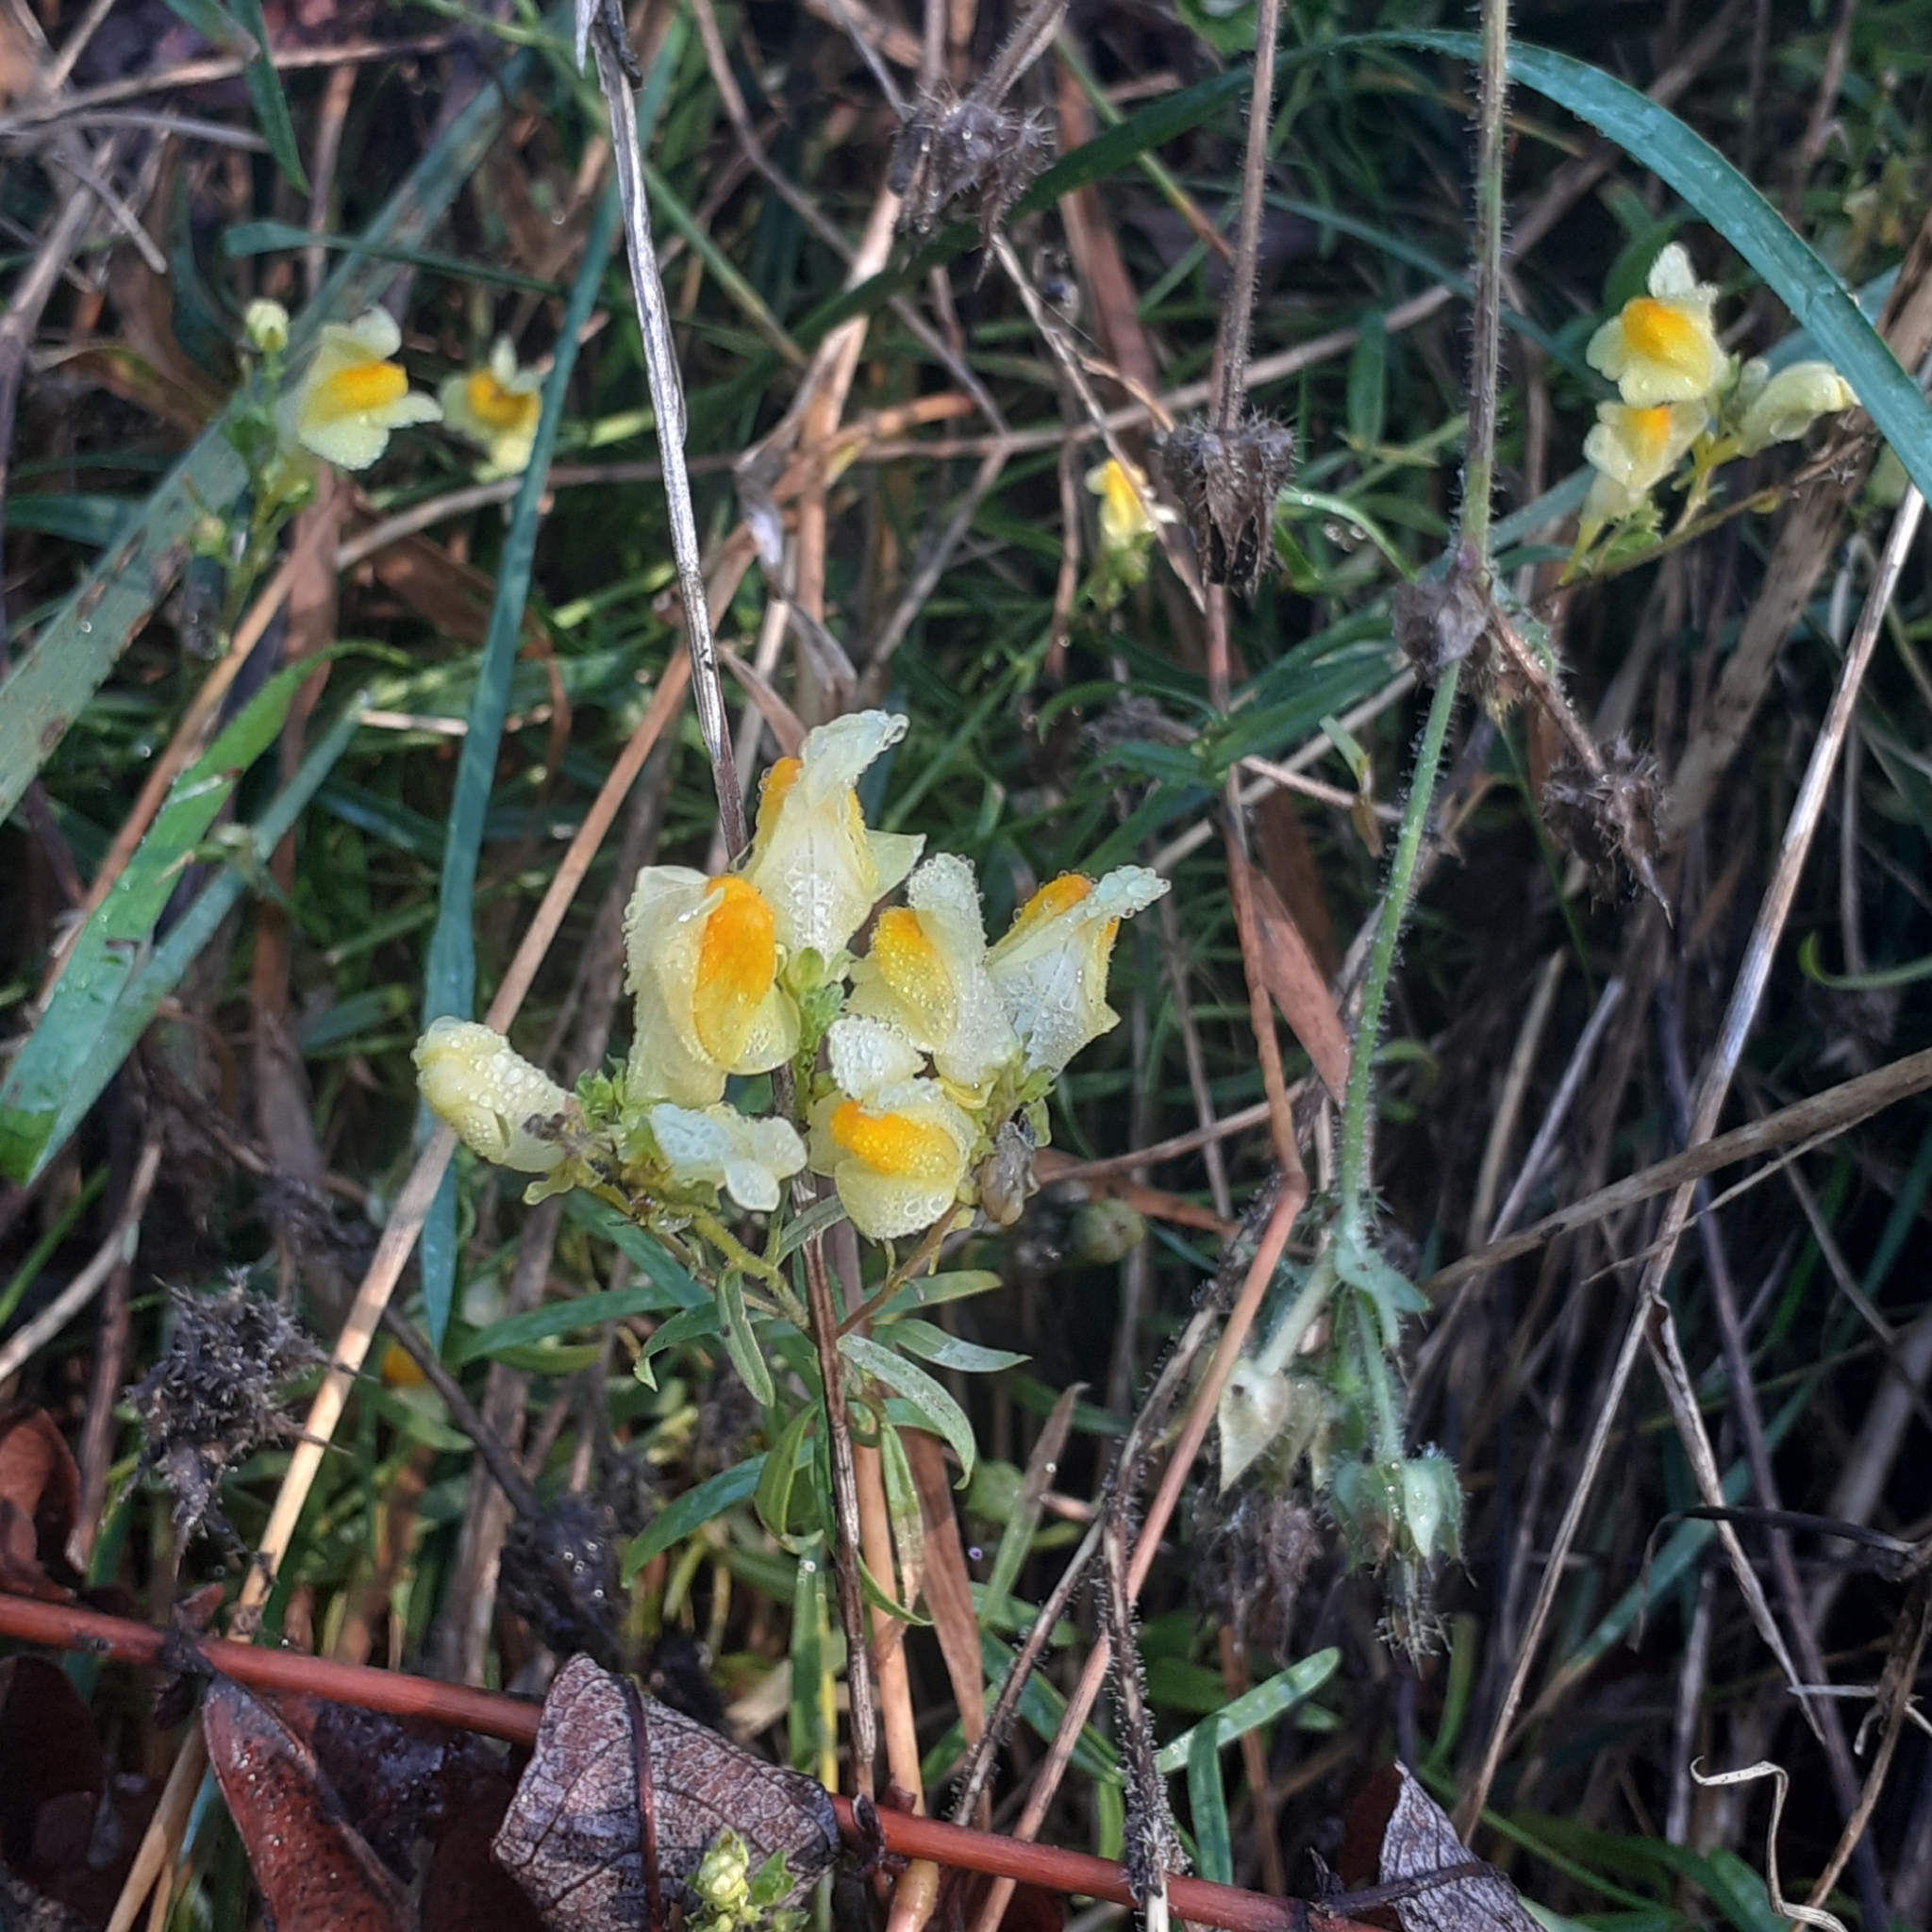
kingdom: Plantae
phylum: Tracheophyta
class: Magnoliopsida
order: Lamiales
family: Plantaginaceae
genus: Linaria
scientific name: Linaria vulgaris
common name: Butter and eggs
